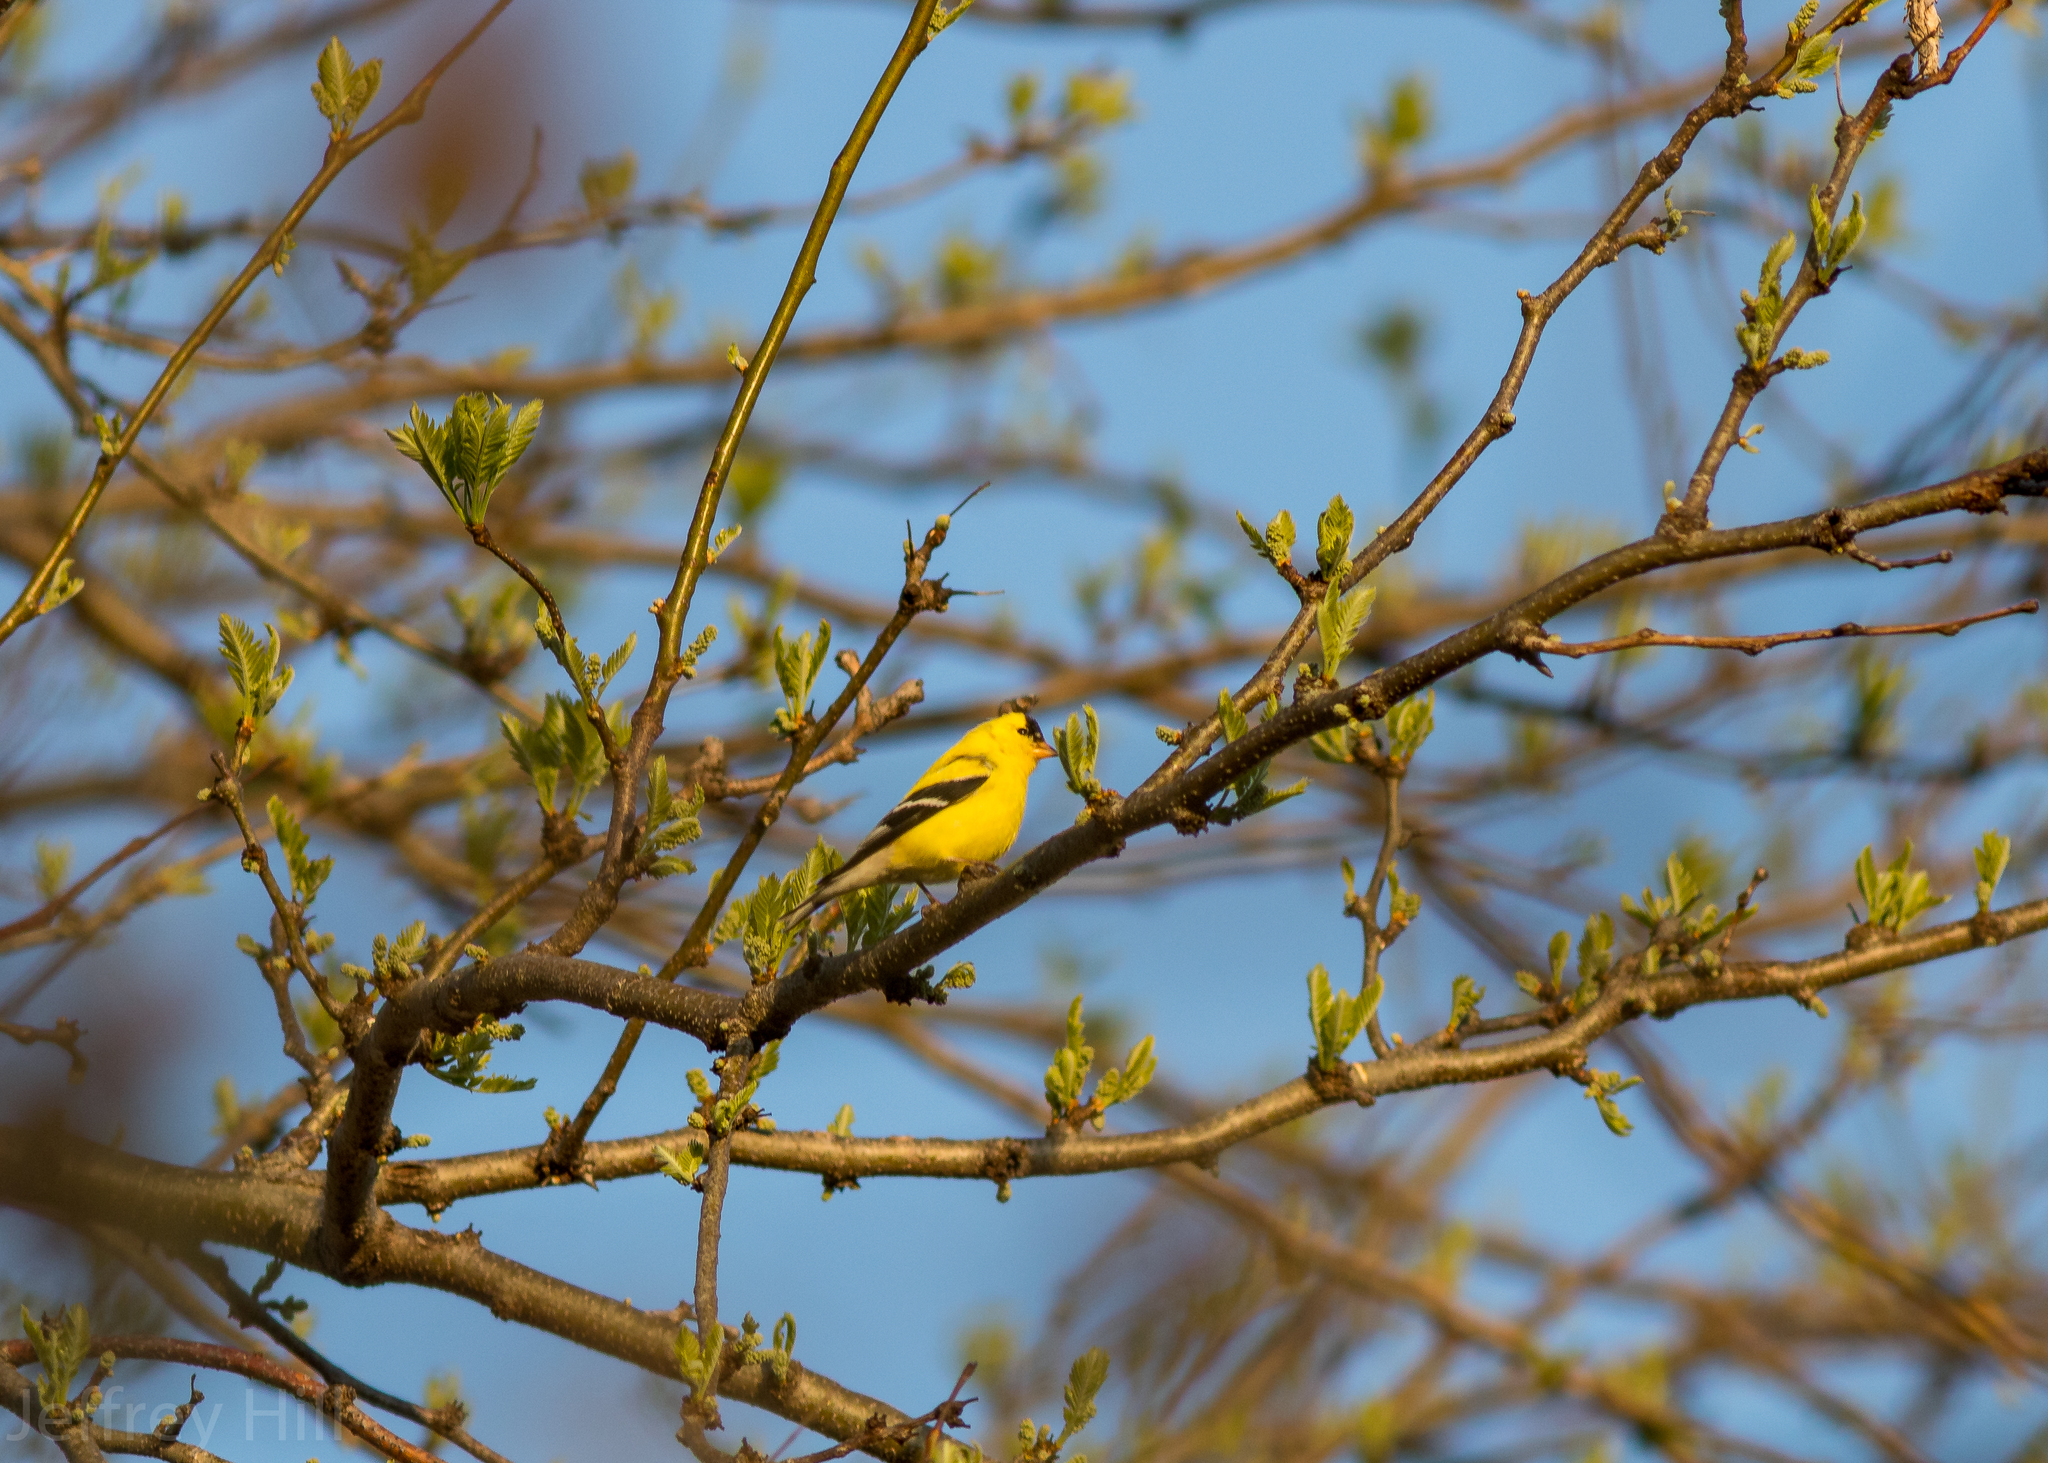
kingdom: Animalia
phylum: Chordata
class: Aves
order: Passeriformes
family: Fringillidae
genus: Spinus
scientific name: Spinus tristis
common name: American goldfinch
